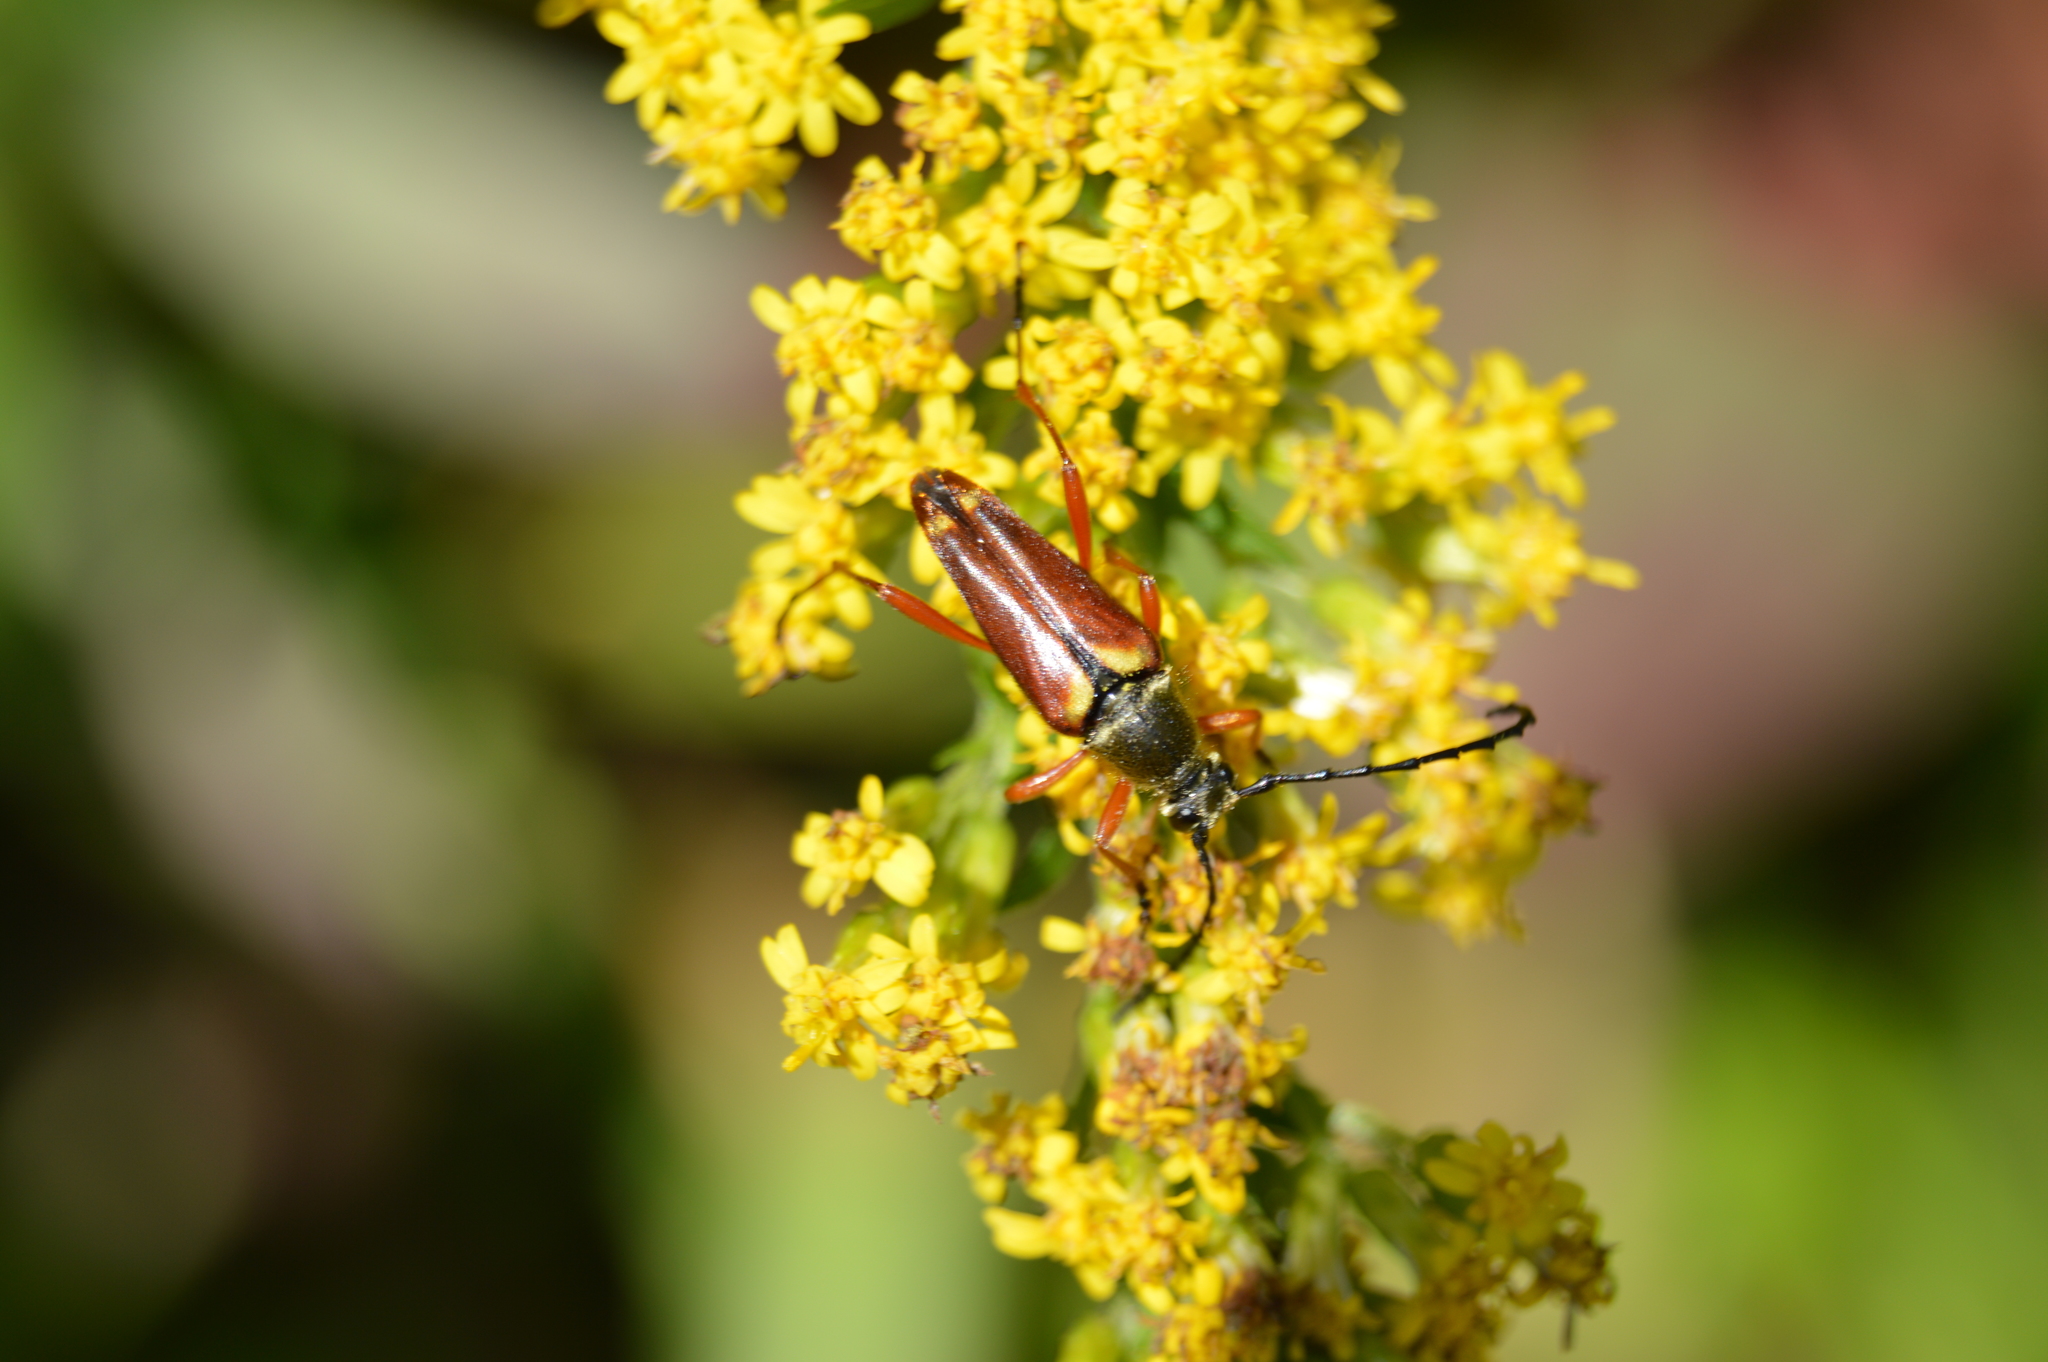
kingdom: Animalia
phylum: Arthropoda
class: Insecta
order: Coleoptera
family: Cerambycidae
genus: Typocerus
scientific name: Typocerus acuticauda
